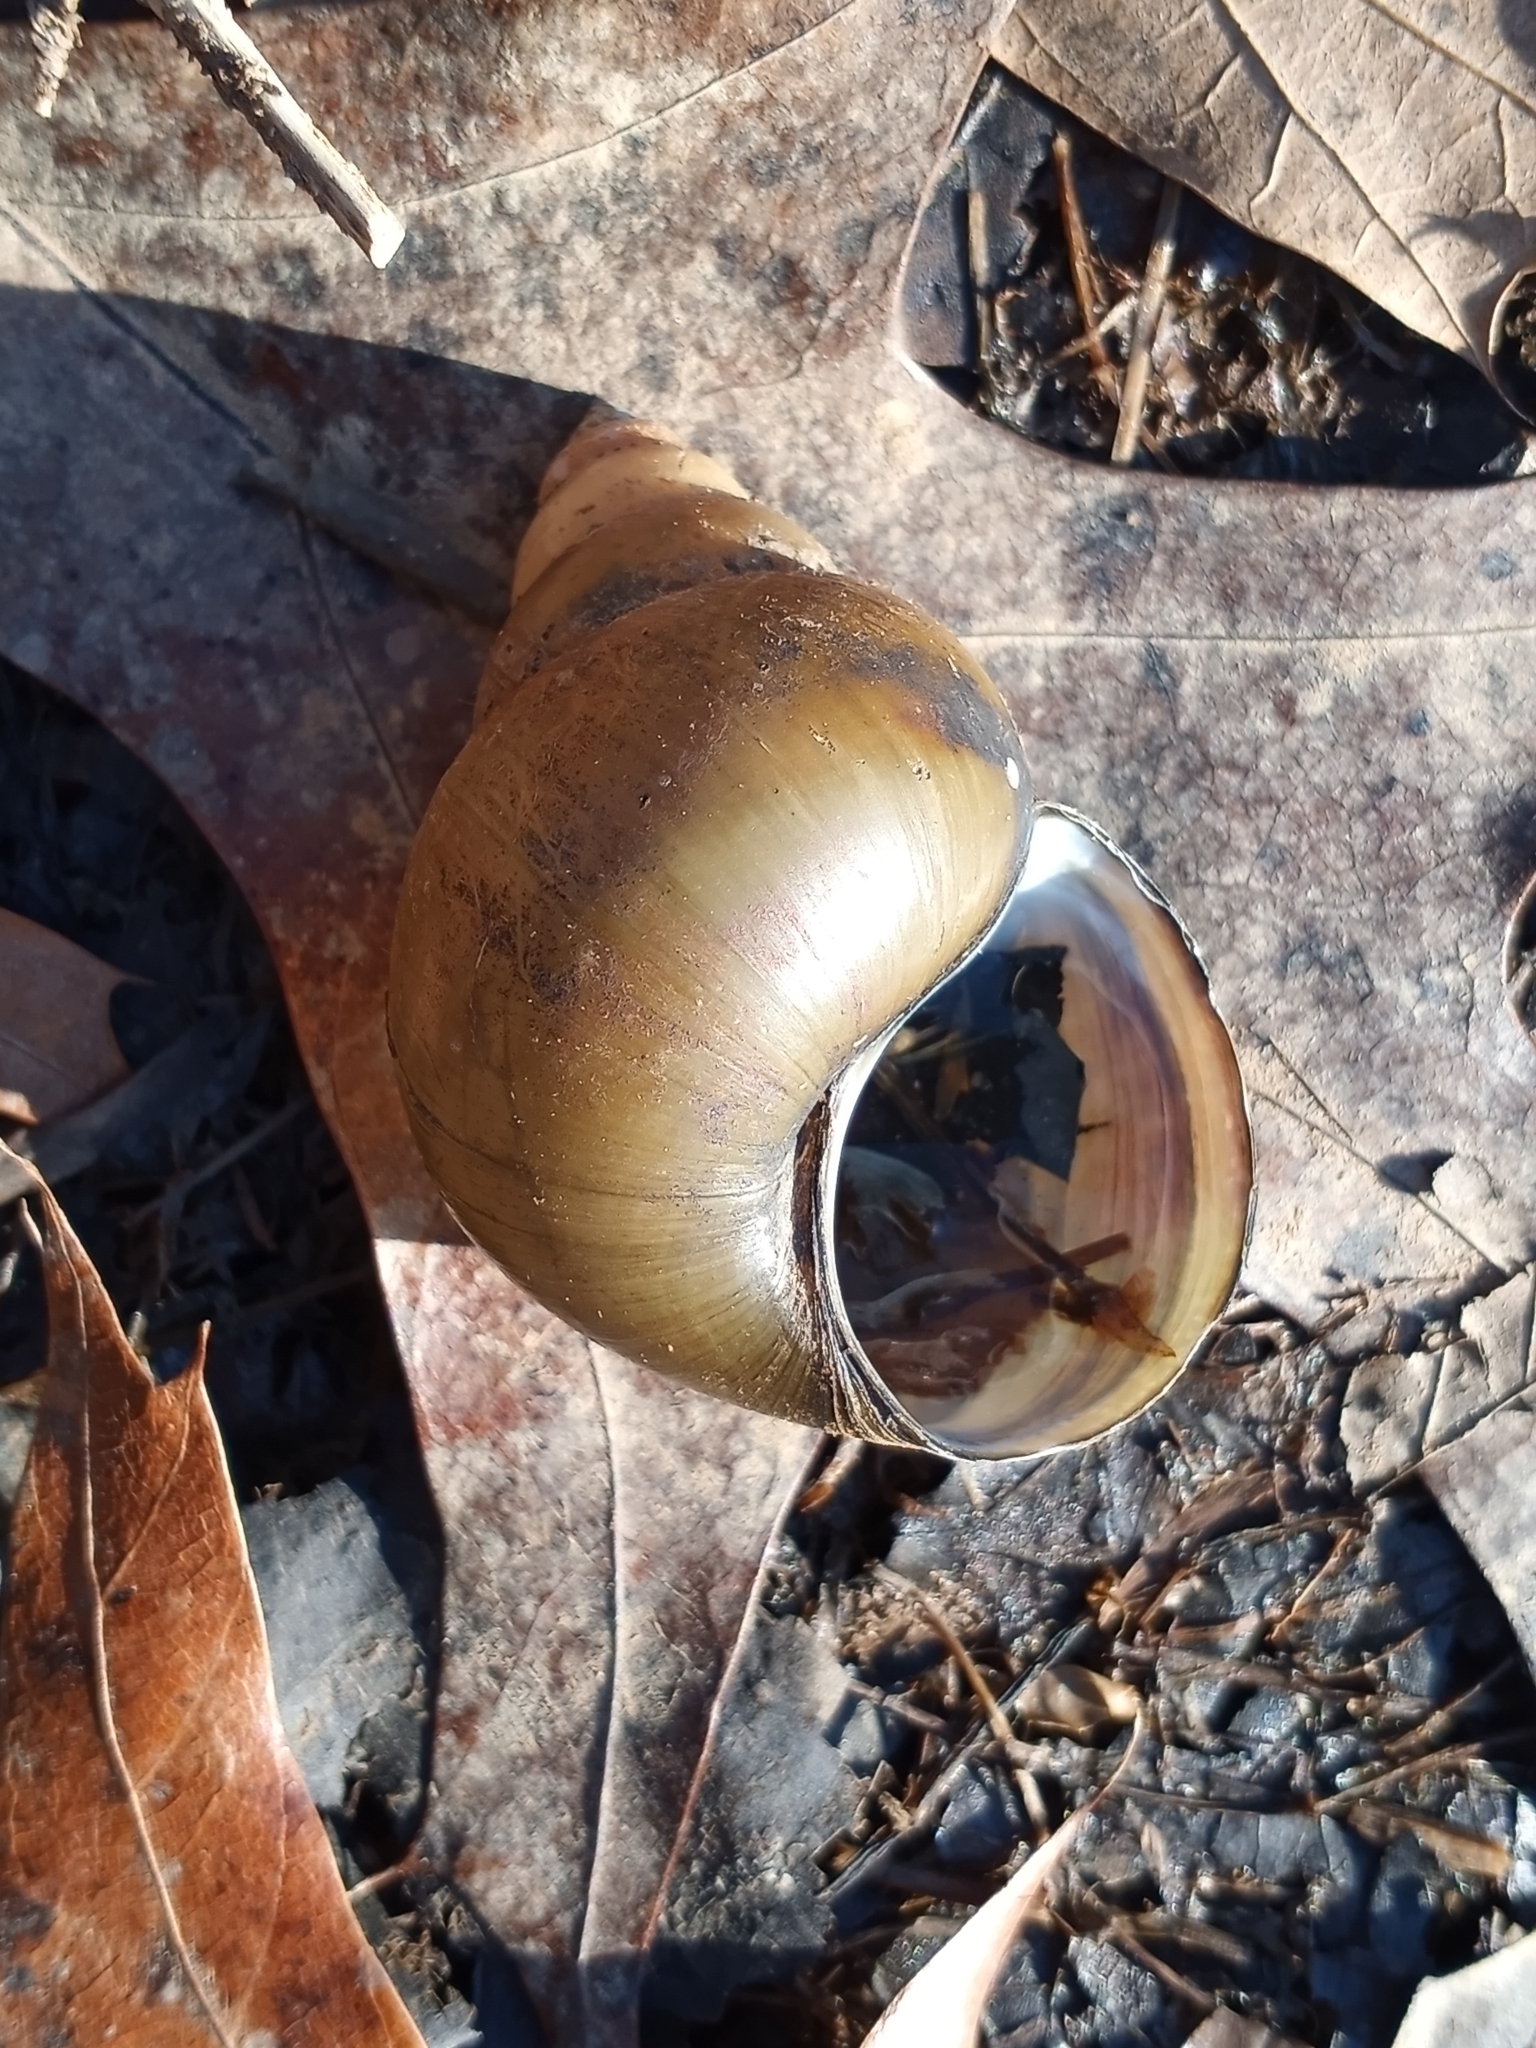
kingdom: Animalia
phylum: Mollusca
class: Gastropoda
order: Architaenioglossa
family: Viviparidae
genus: Cipangopaludina
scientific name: Cipangopaludina chinensis
